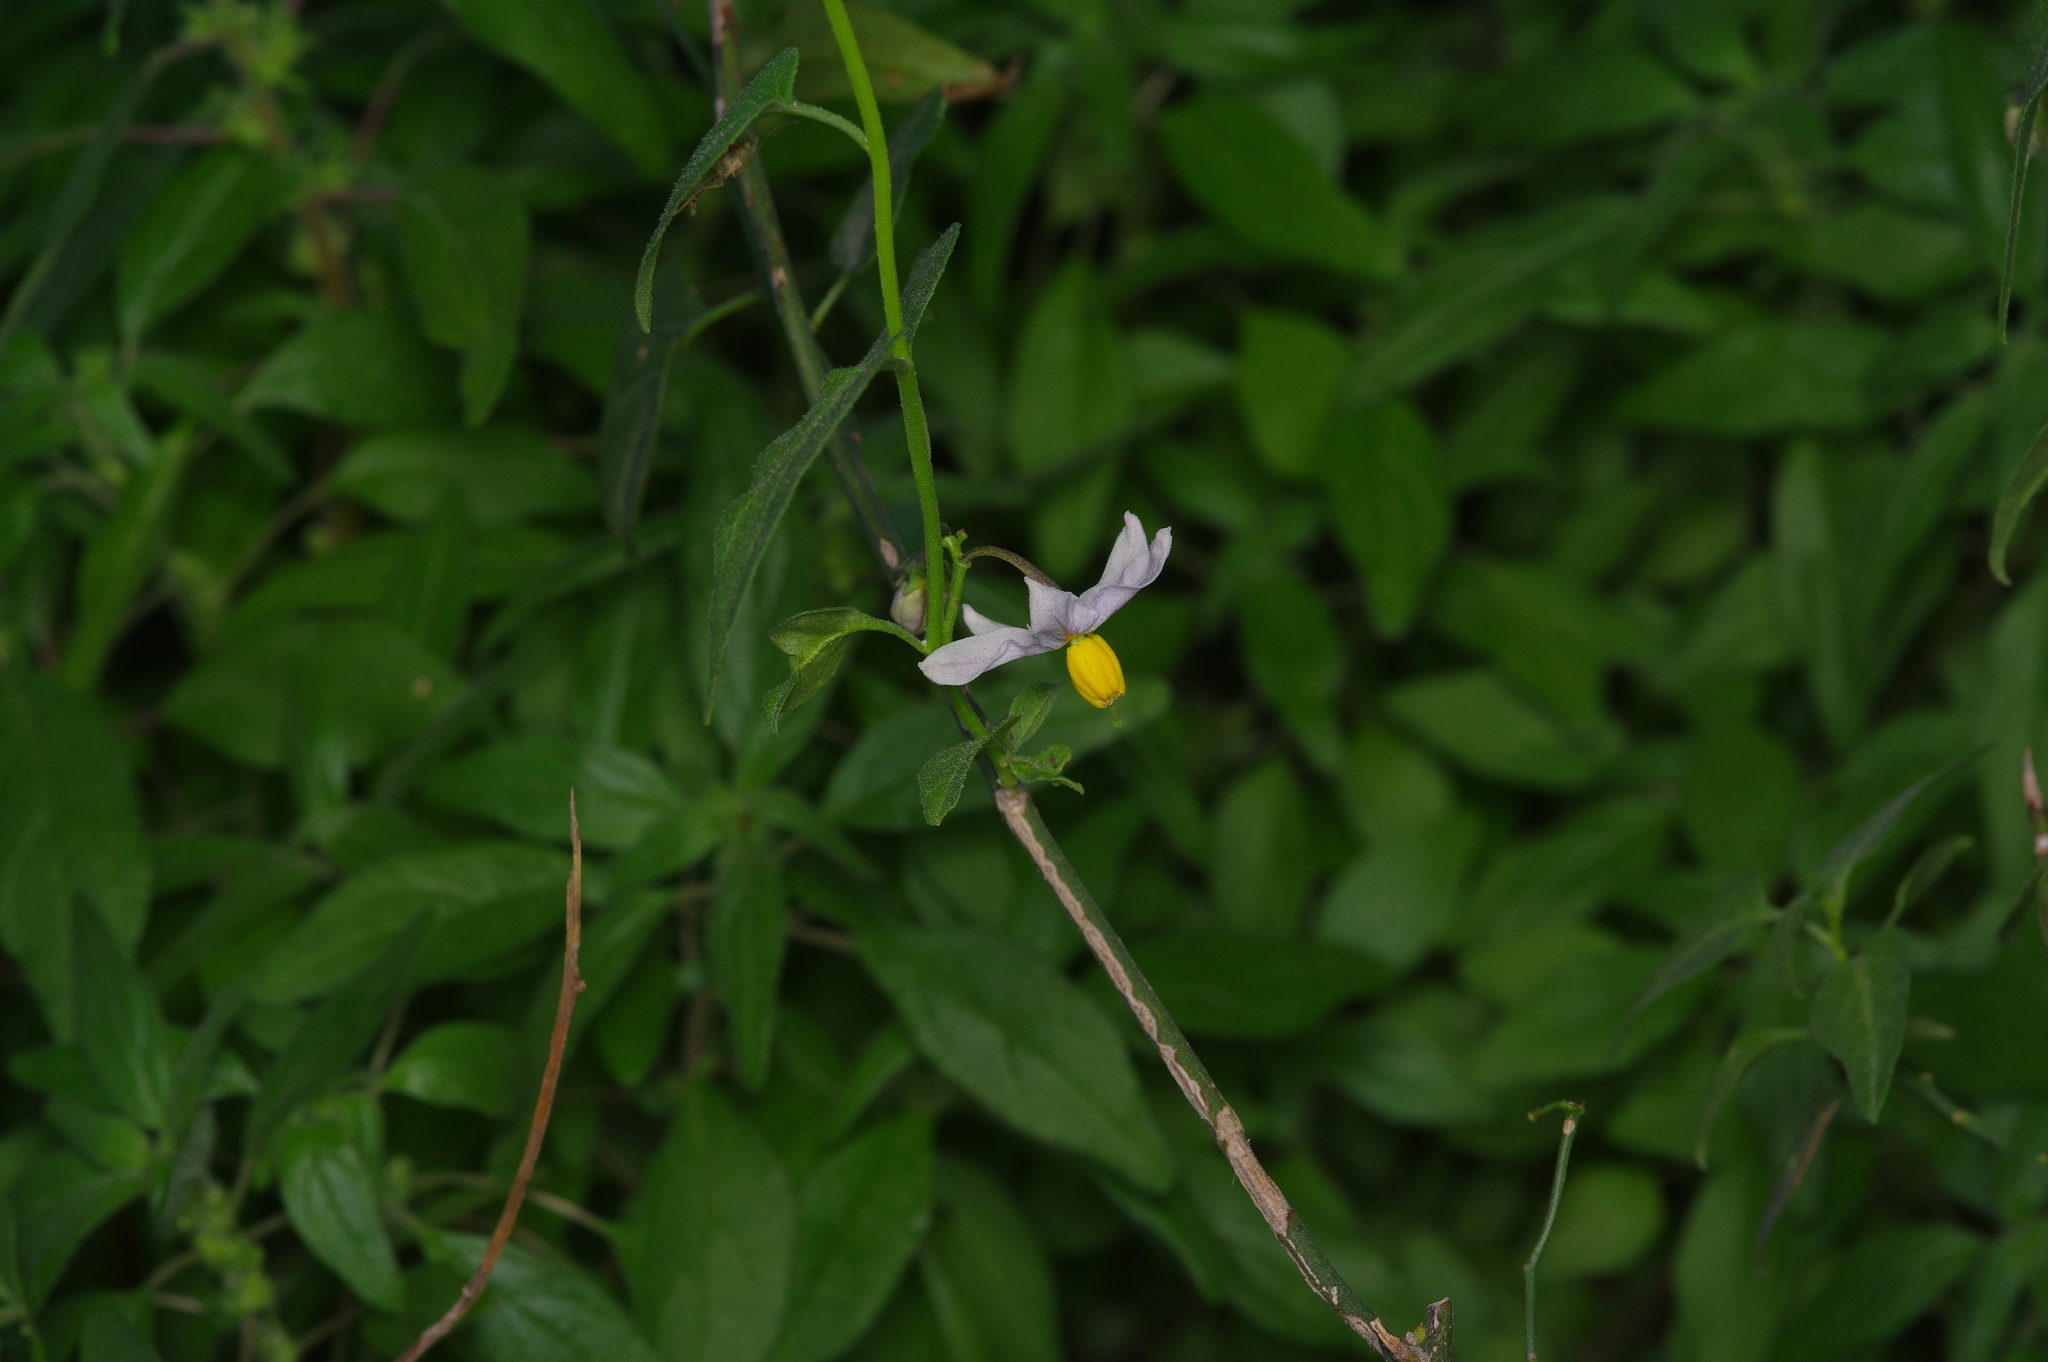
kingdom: Plantae
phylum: Tracheophyta
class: Magnoliopsida
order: Solanales
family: Solanaceae
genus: Solanum
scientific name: Solanum triquetrum
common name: Texas nightshade
